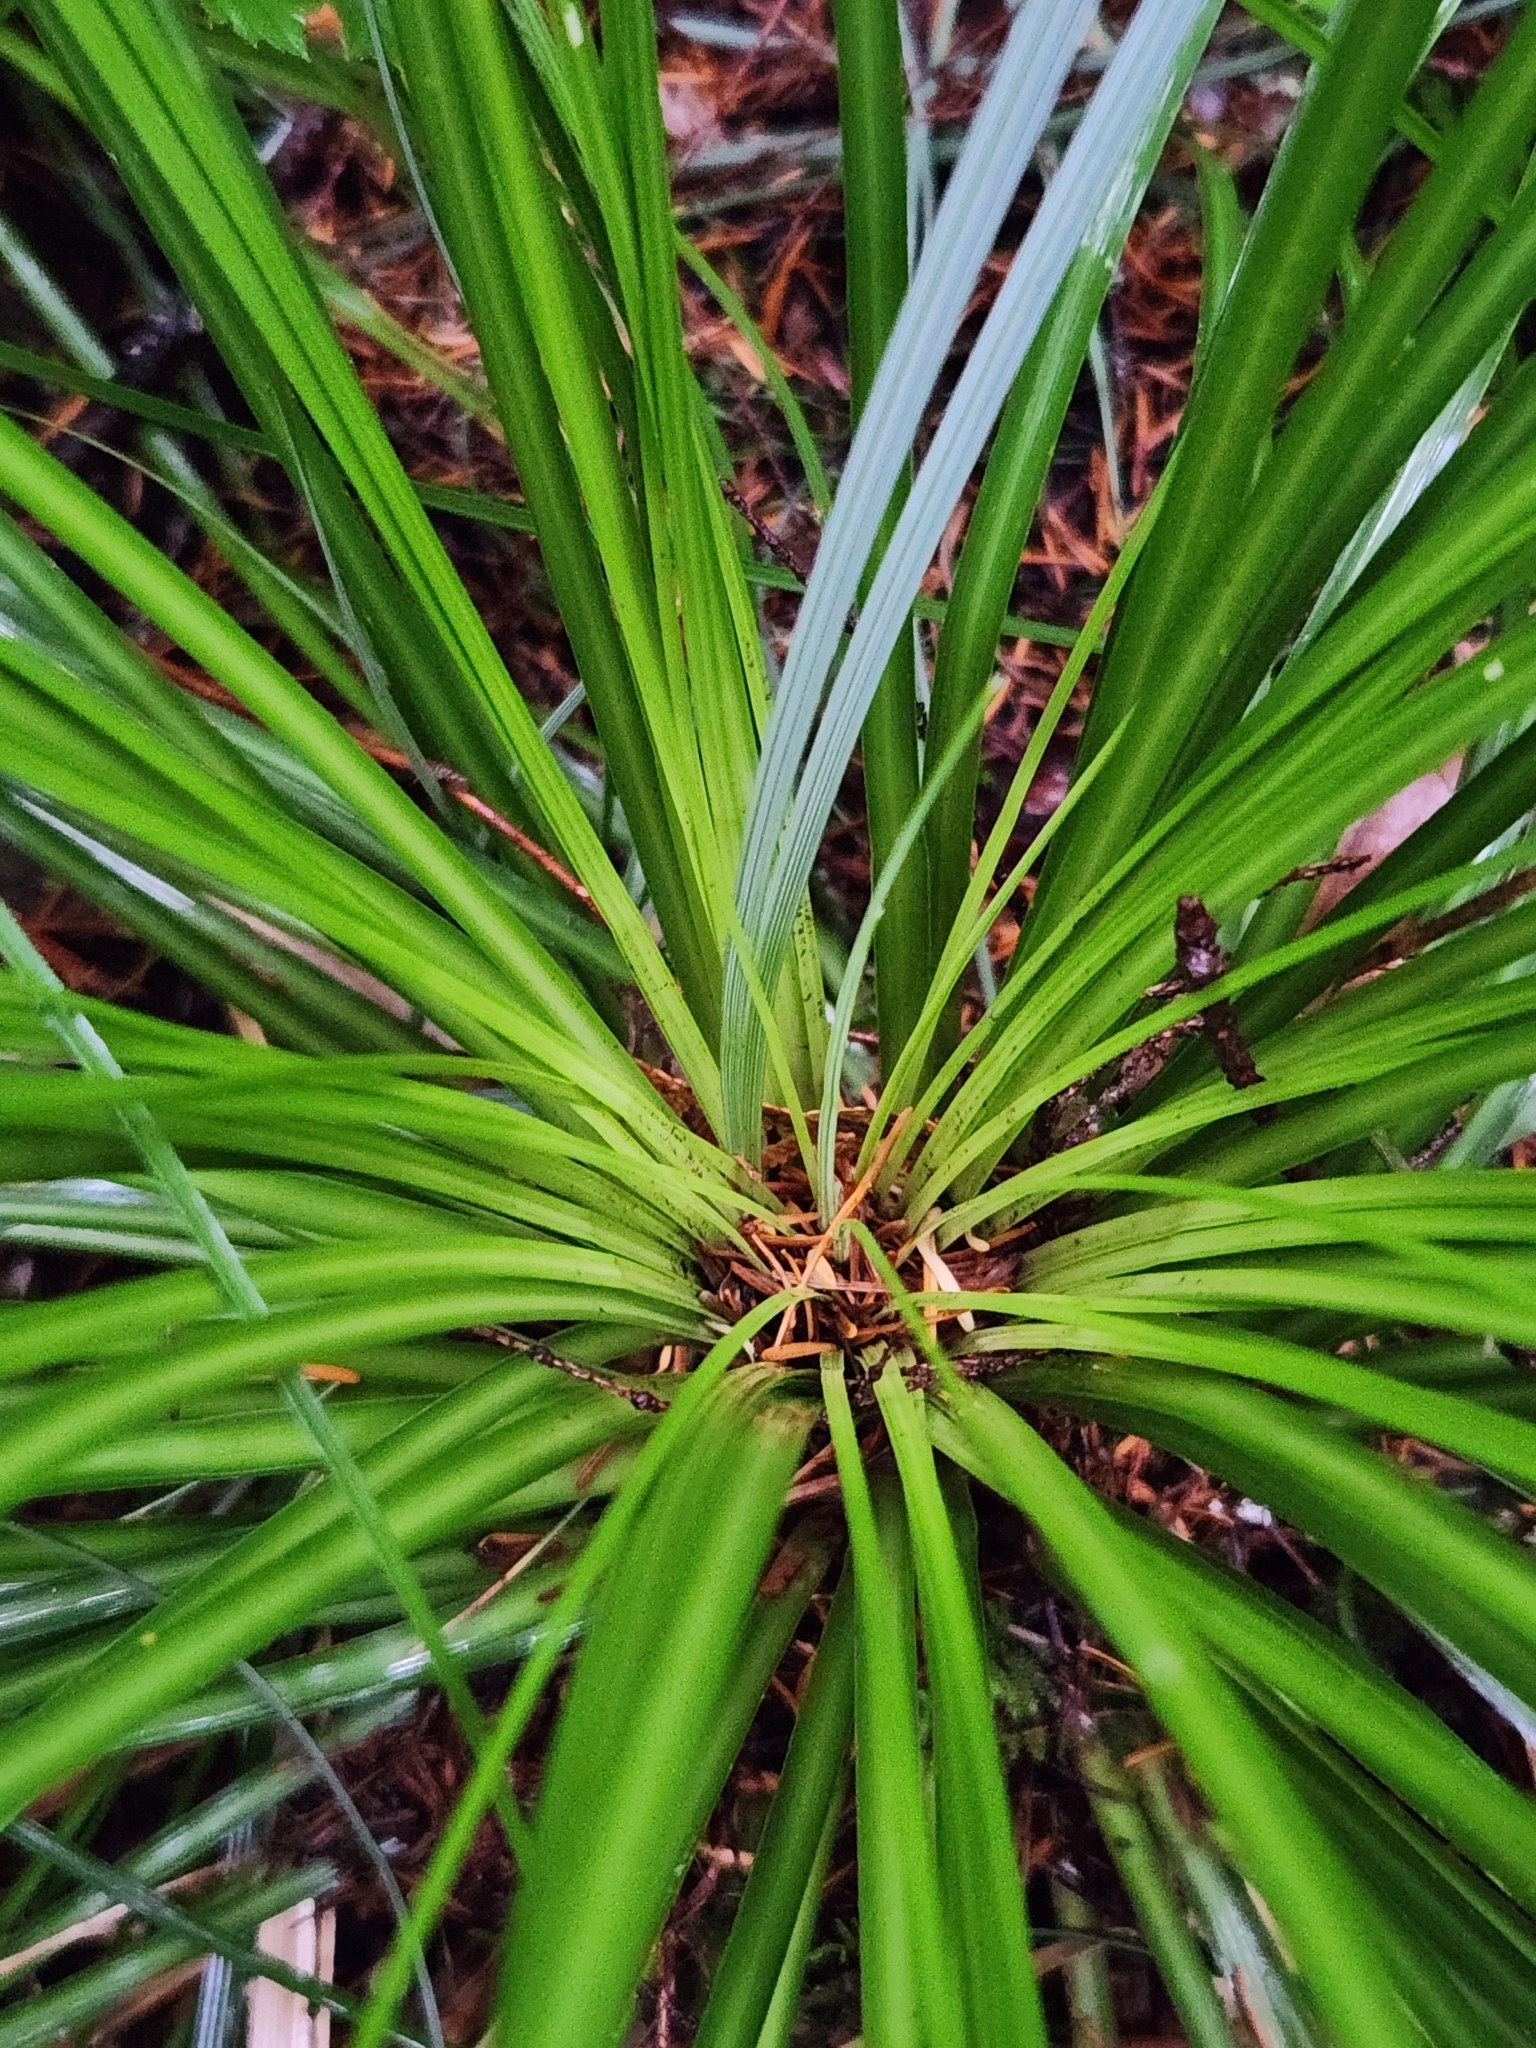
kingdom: Plantae
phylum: Tracheophyta
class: Liliopsida
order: Liliales
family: Melanthiaceae
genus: Xerophyllum
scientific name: Xerophyllum tenax
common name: Bear-grass
